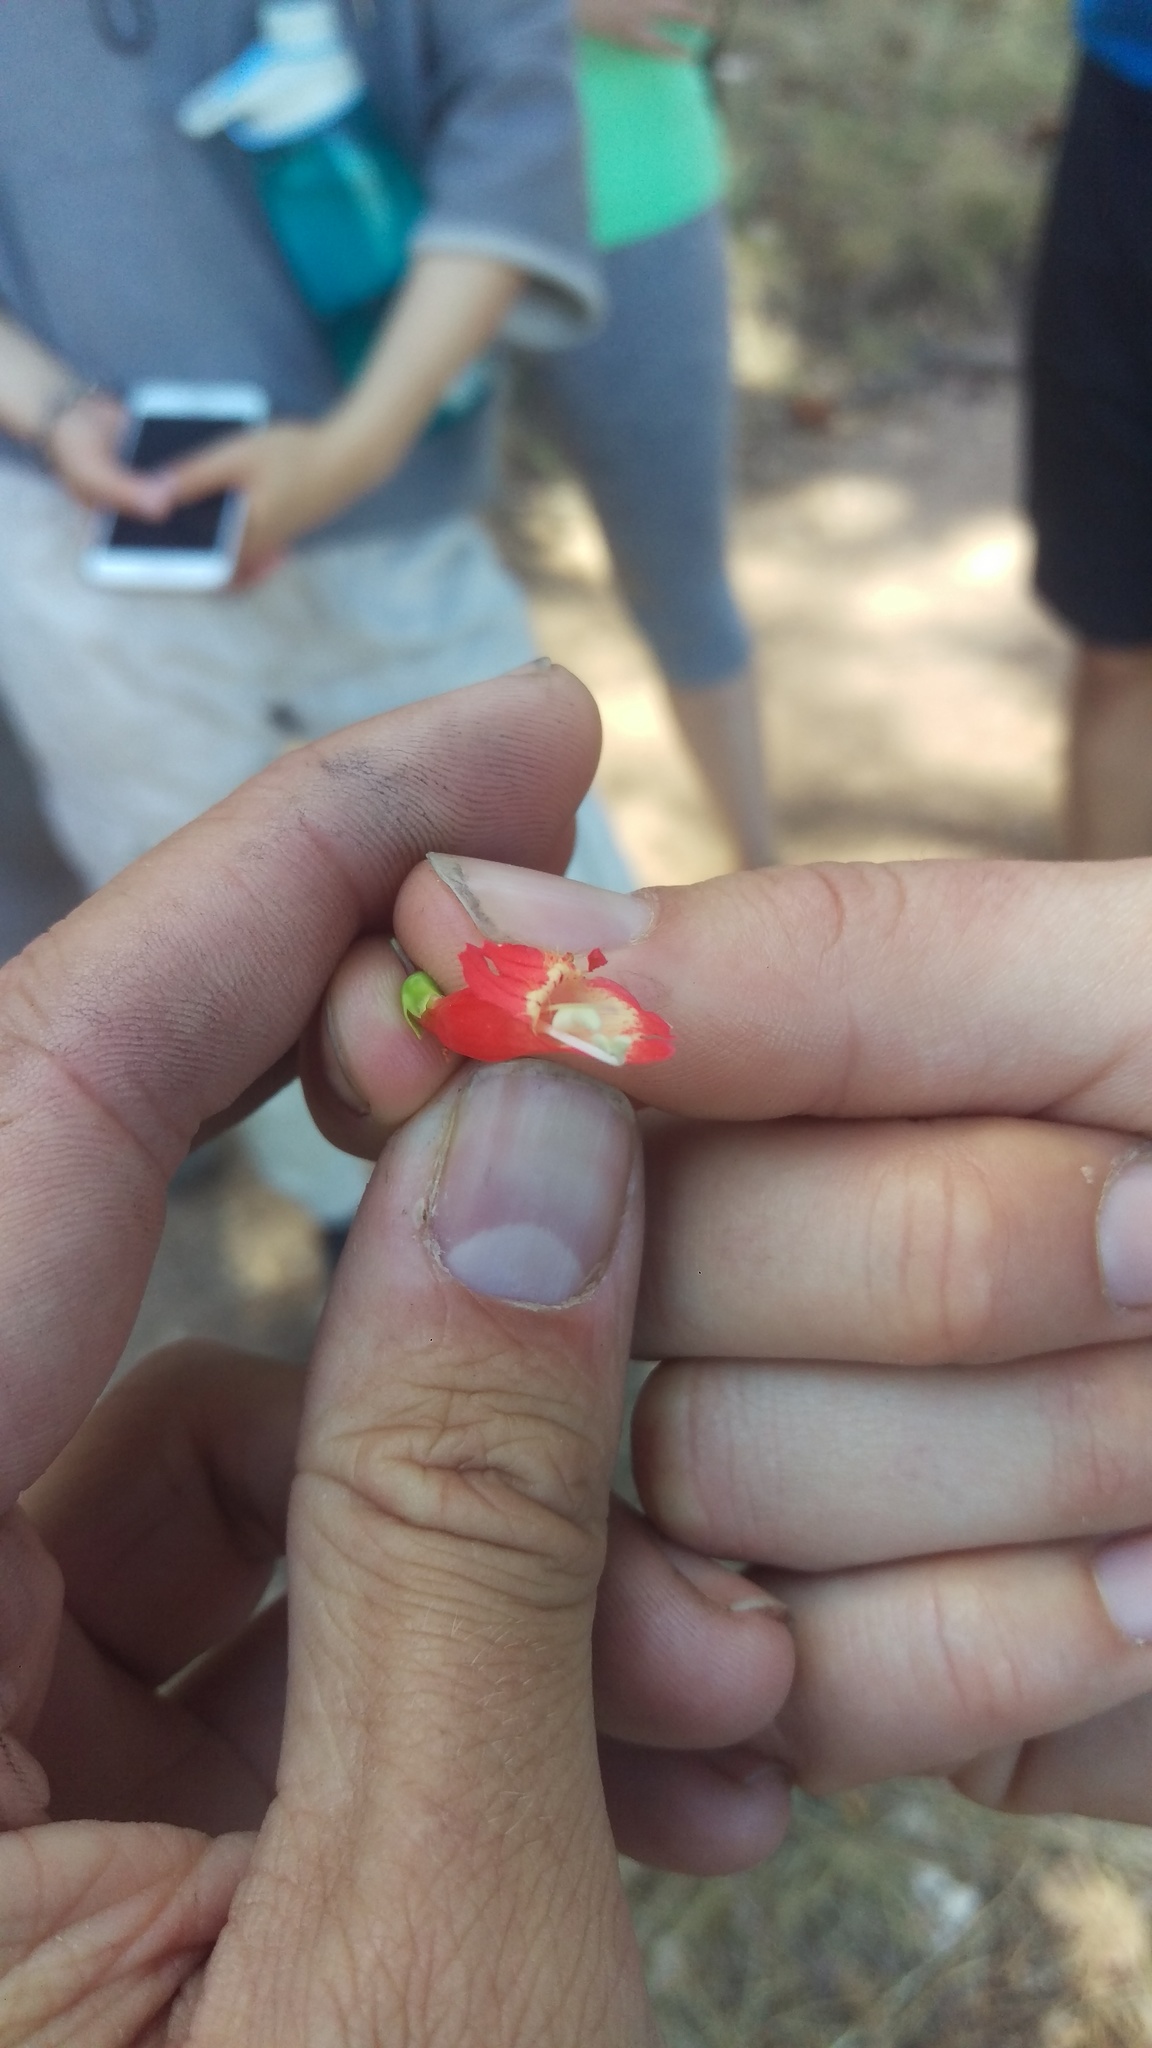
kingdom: Plantae
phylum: Tracheophyta
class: Magnoliopsida
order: Lamiales
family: Plantaginaceae
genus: Penstemon
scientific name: Penstemon barbatus
